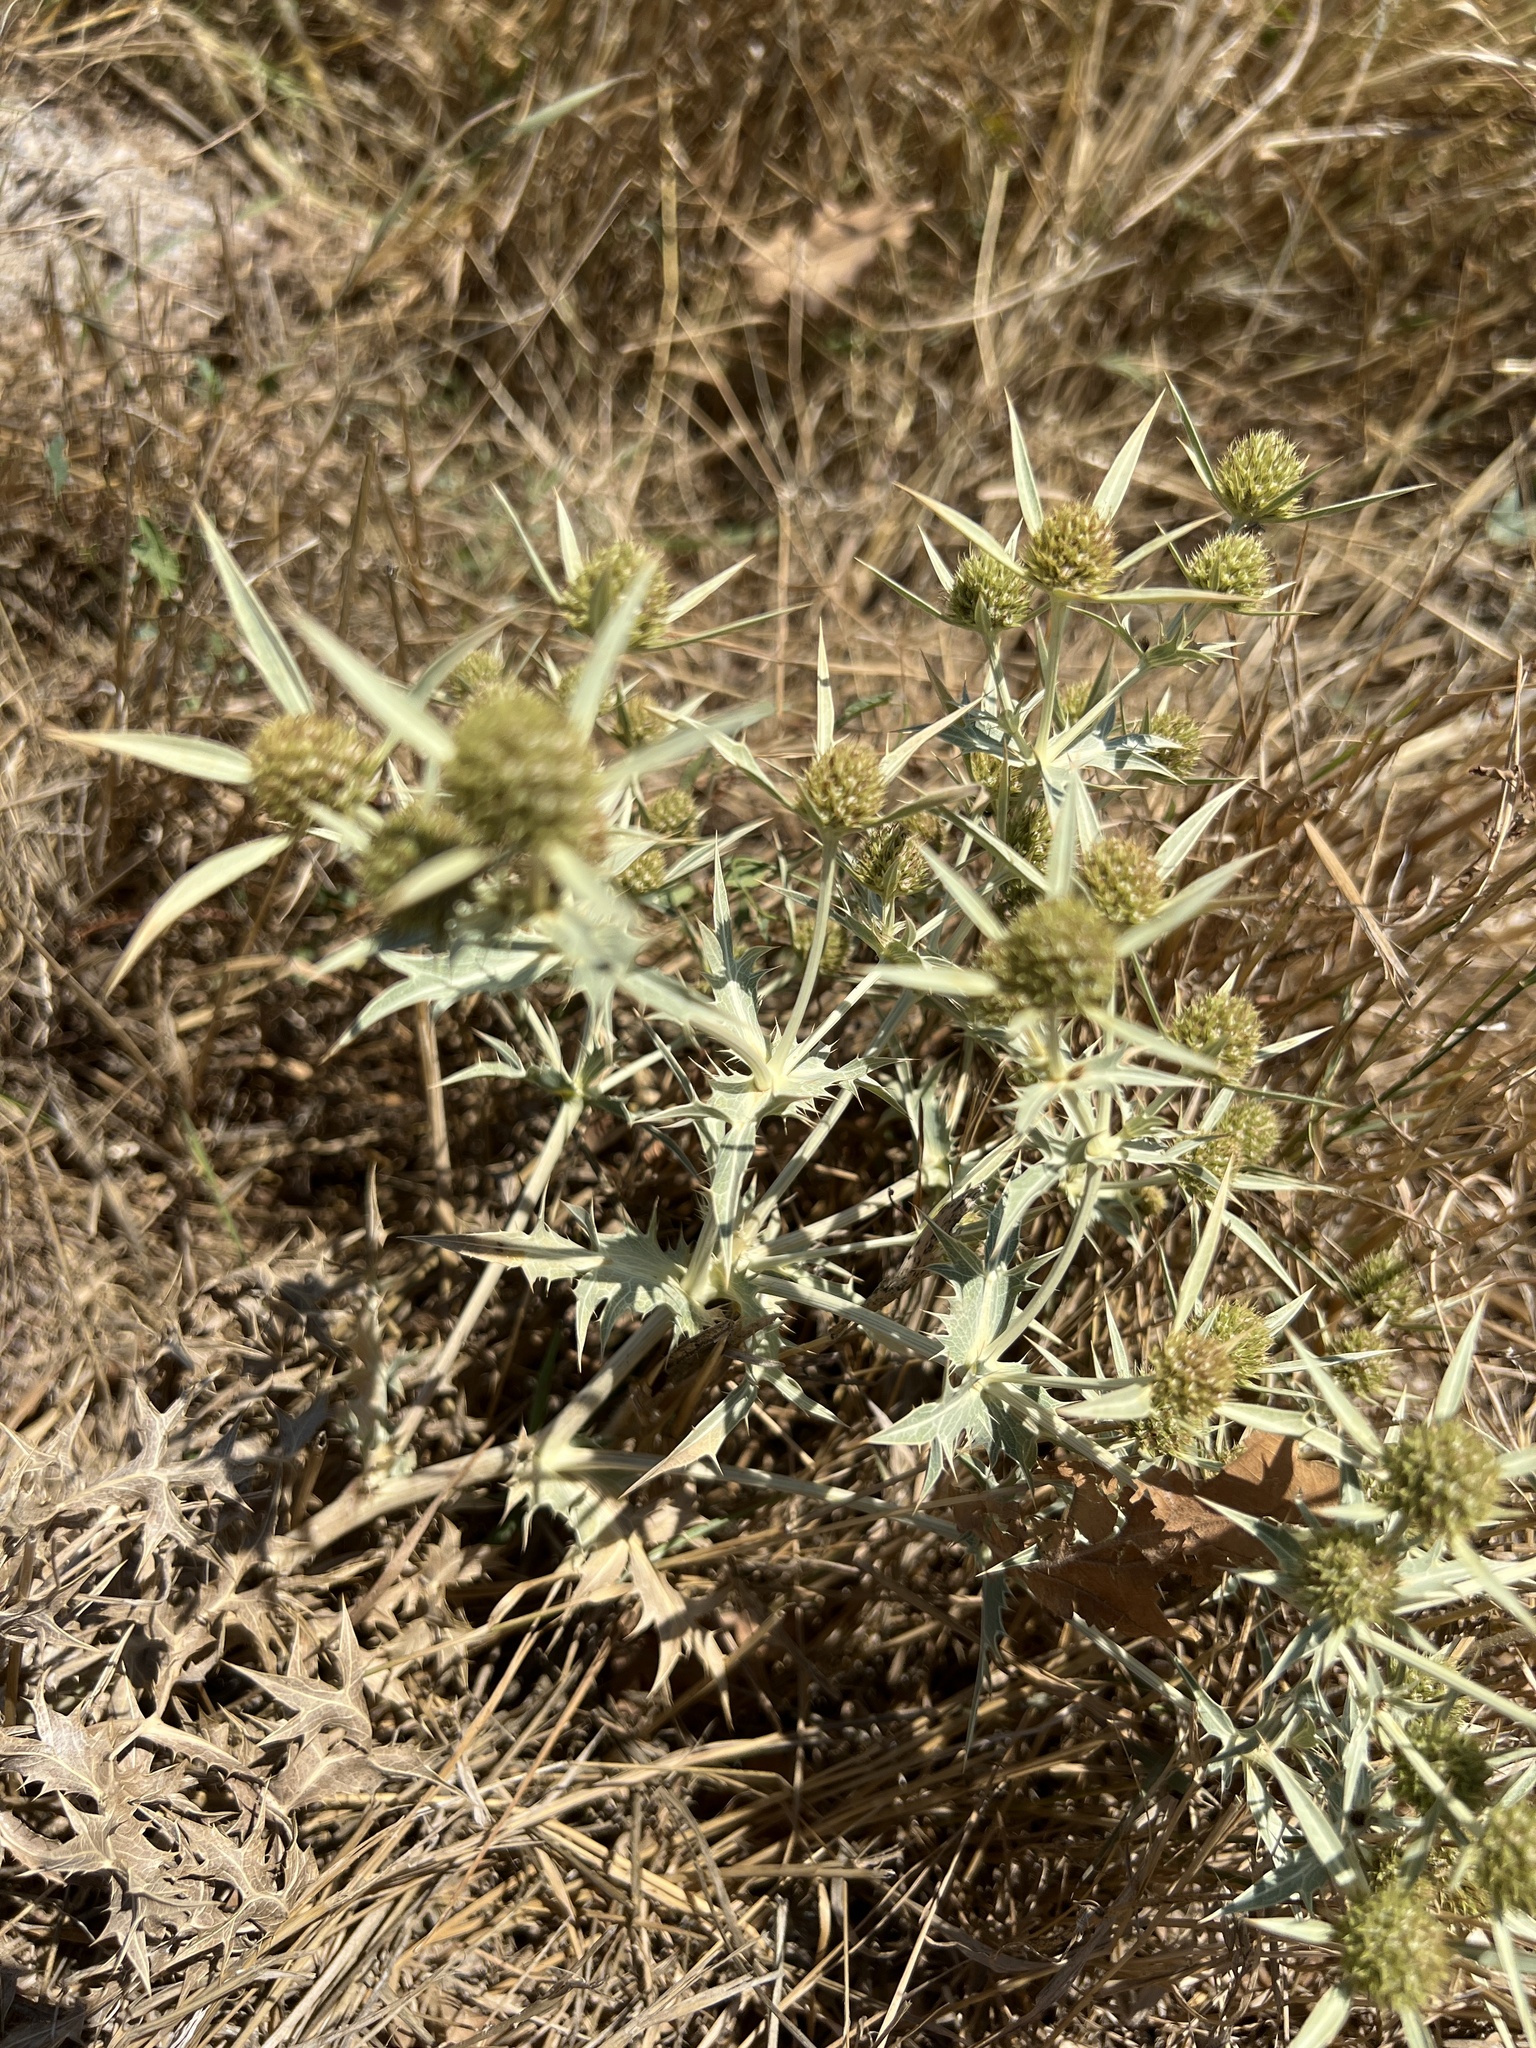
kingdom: Plantae
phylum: Tracheophyta
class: Magnoliopsida
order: Apiales
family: Apiaceae
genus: Eryngium
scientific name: Eryngium campestre
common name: Field eryngo
